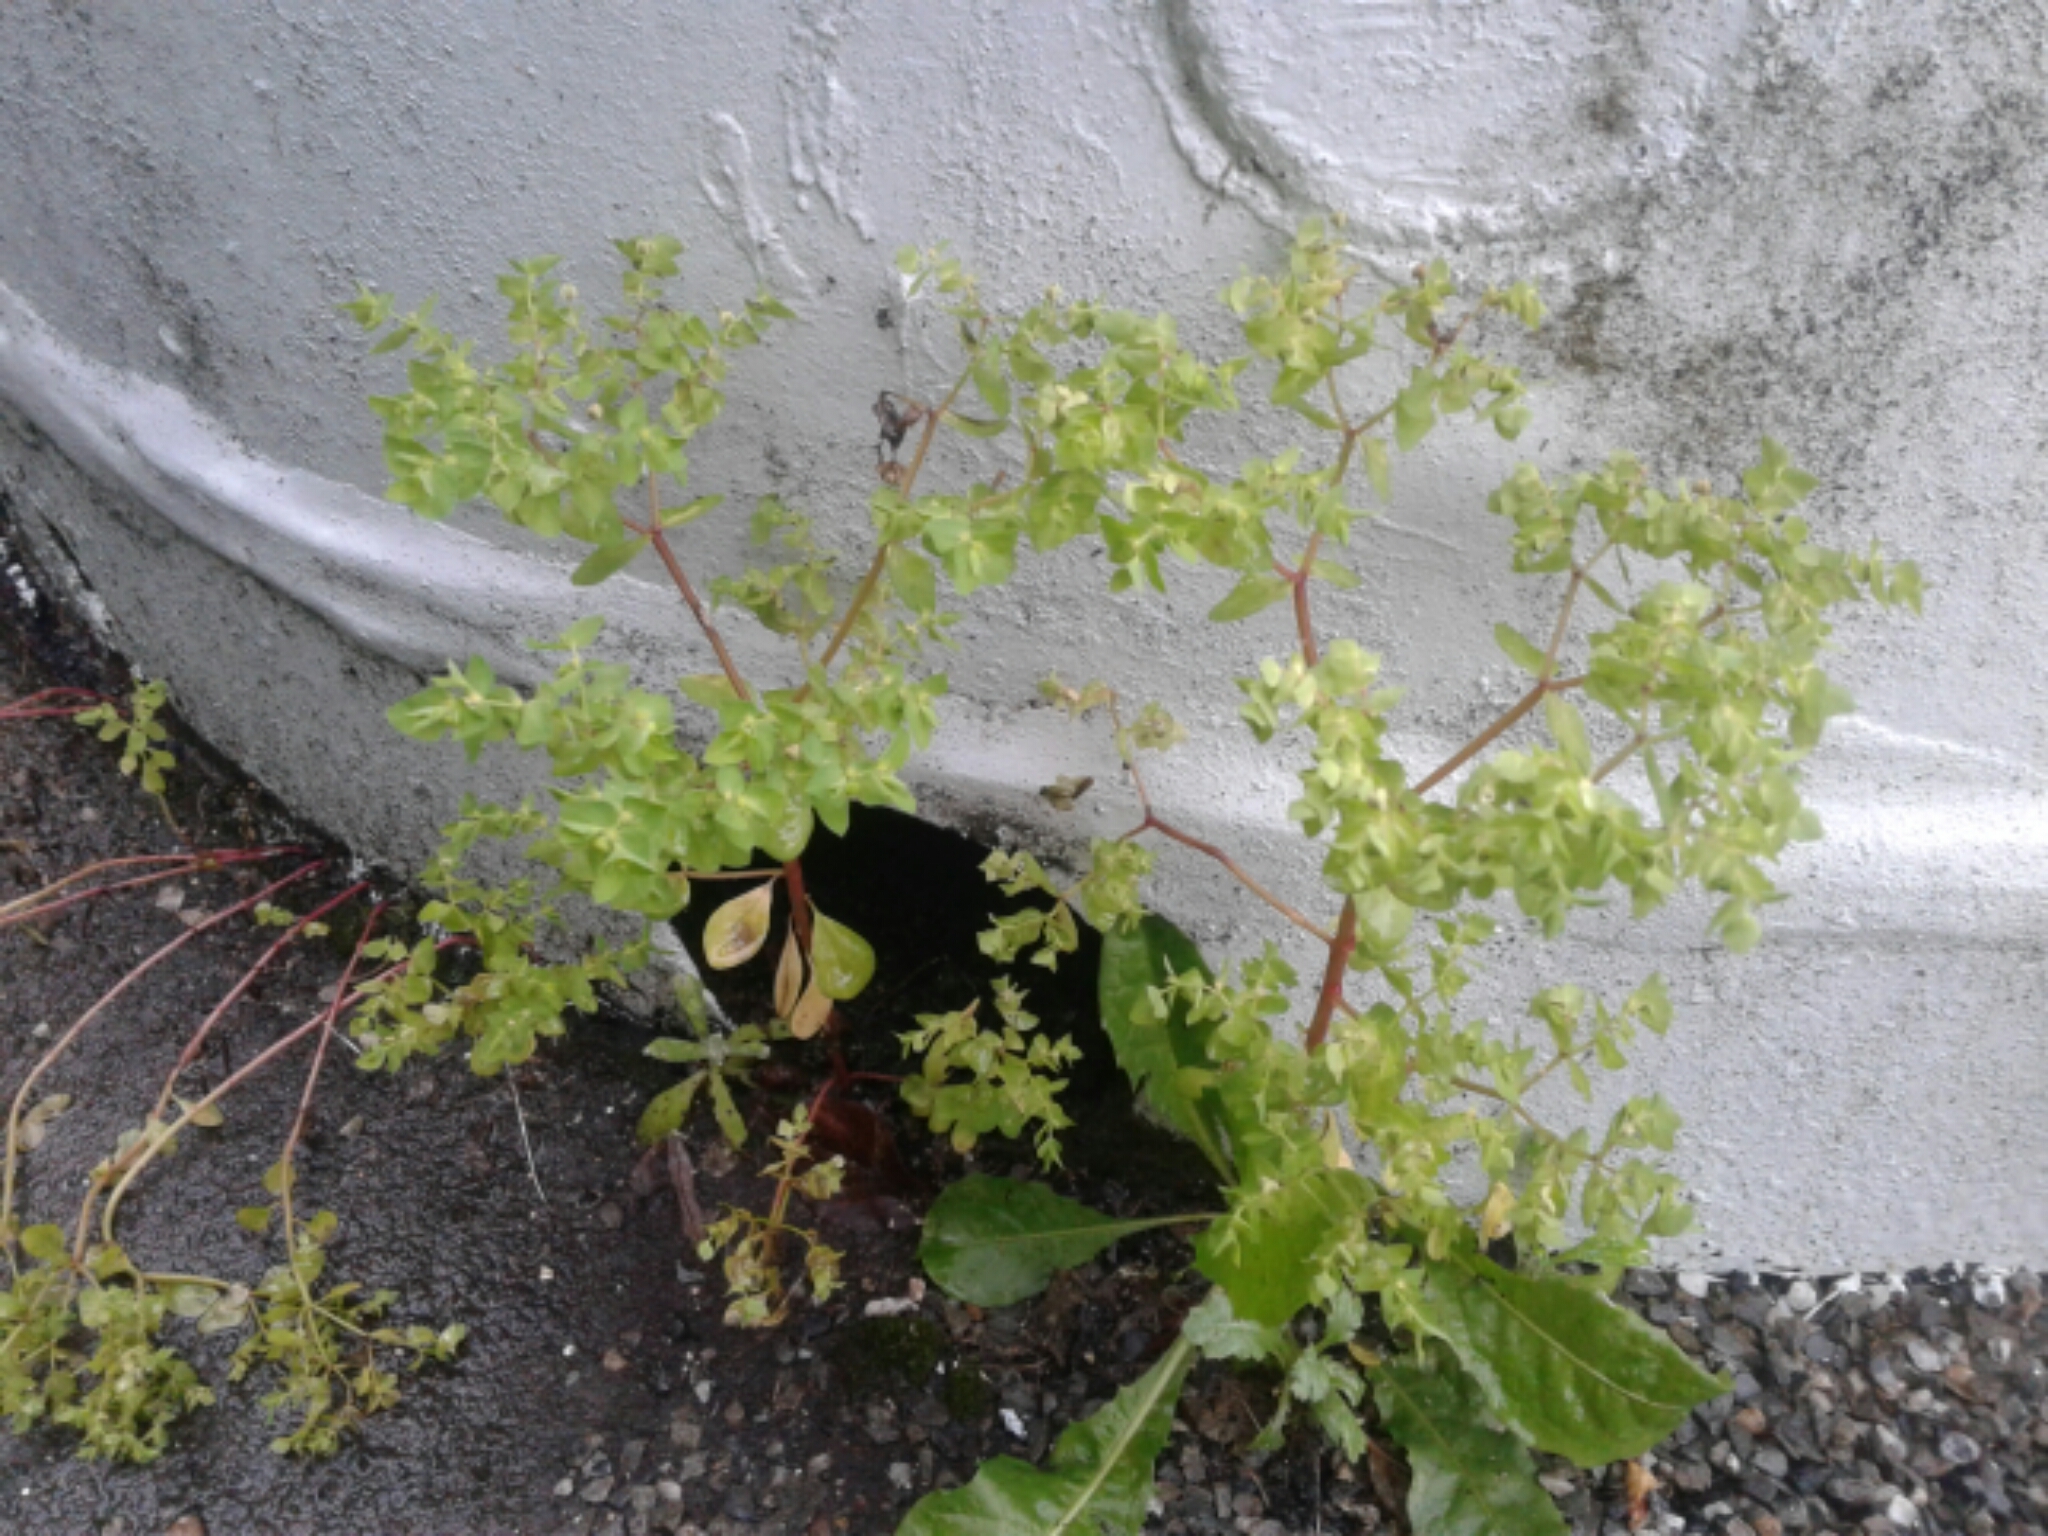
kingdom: Plantae
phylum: Tracheophyta
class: Magnoliopsida
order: Malpighiales
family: Euphorbiaceae
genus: Euphorbia
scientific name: Euphorbia peplus
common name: Petty spurge
